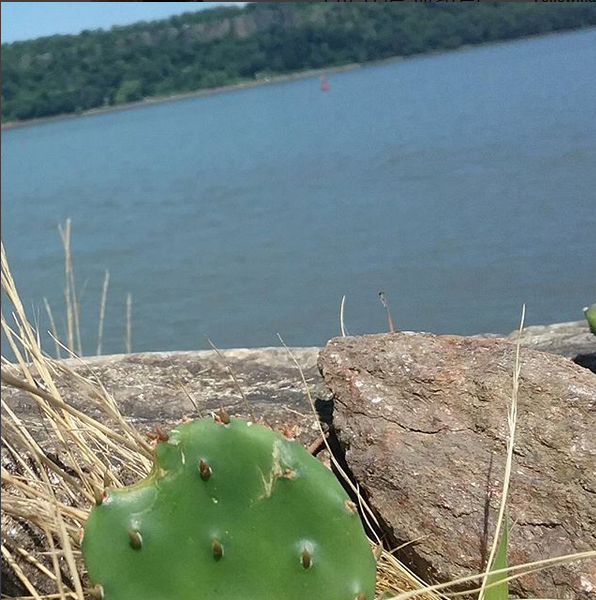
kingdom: Plantae
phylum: Tracheophyta
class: Magnoliopsida
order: Caryophyllales
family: Cactaceae
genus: Opuntia
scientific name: Opuntia humifusa
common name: Eastern prickly-pear
